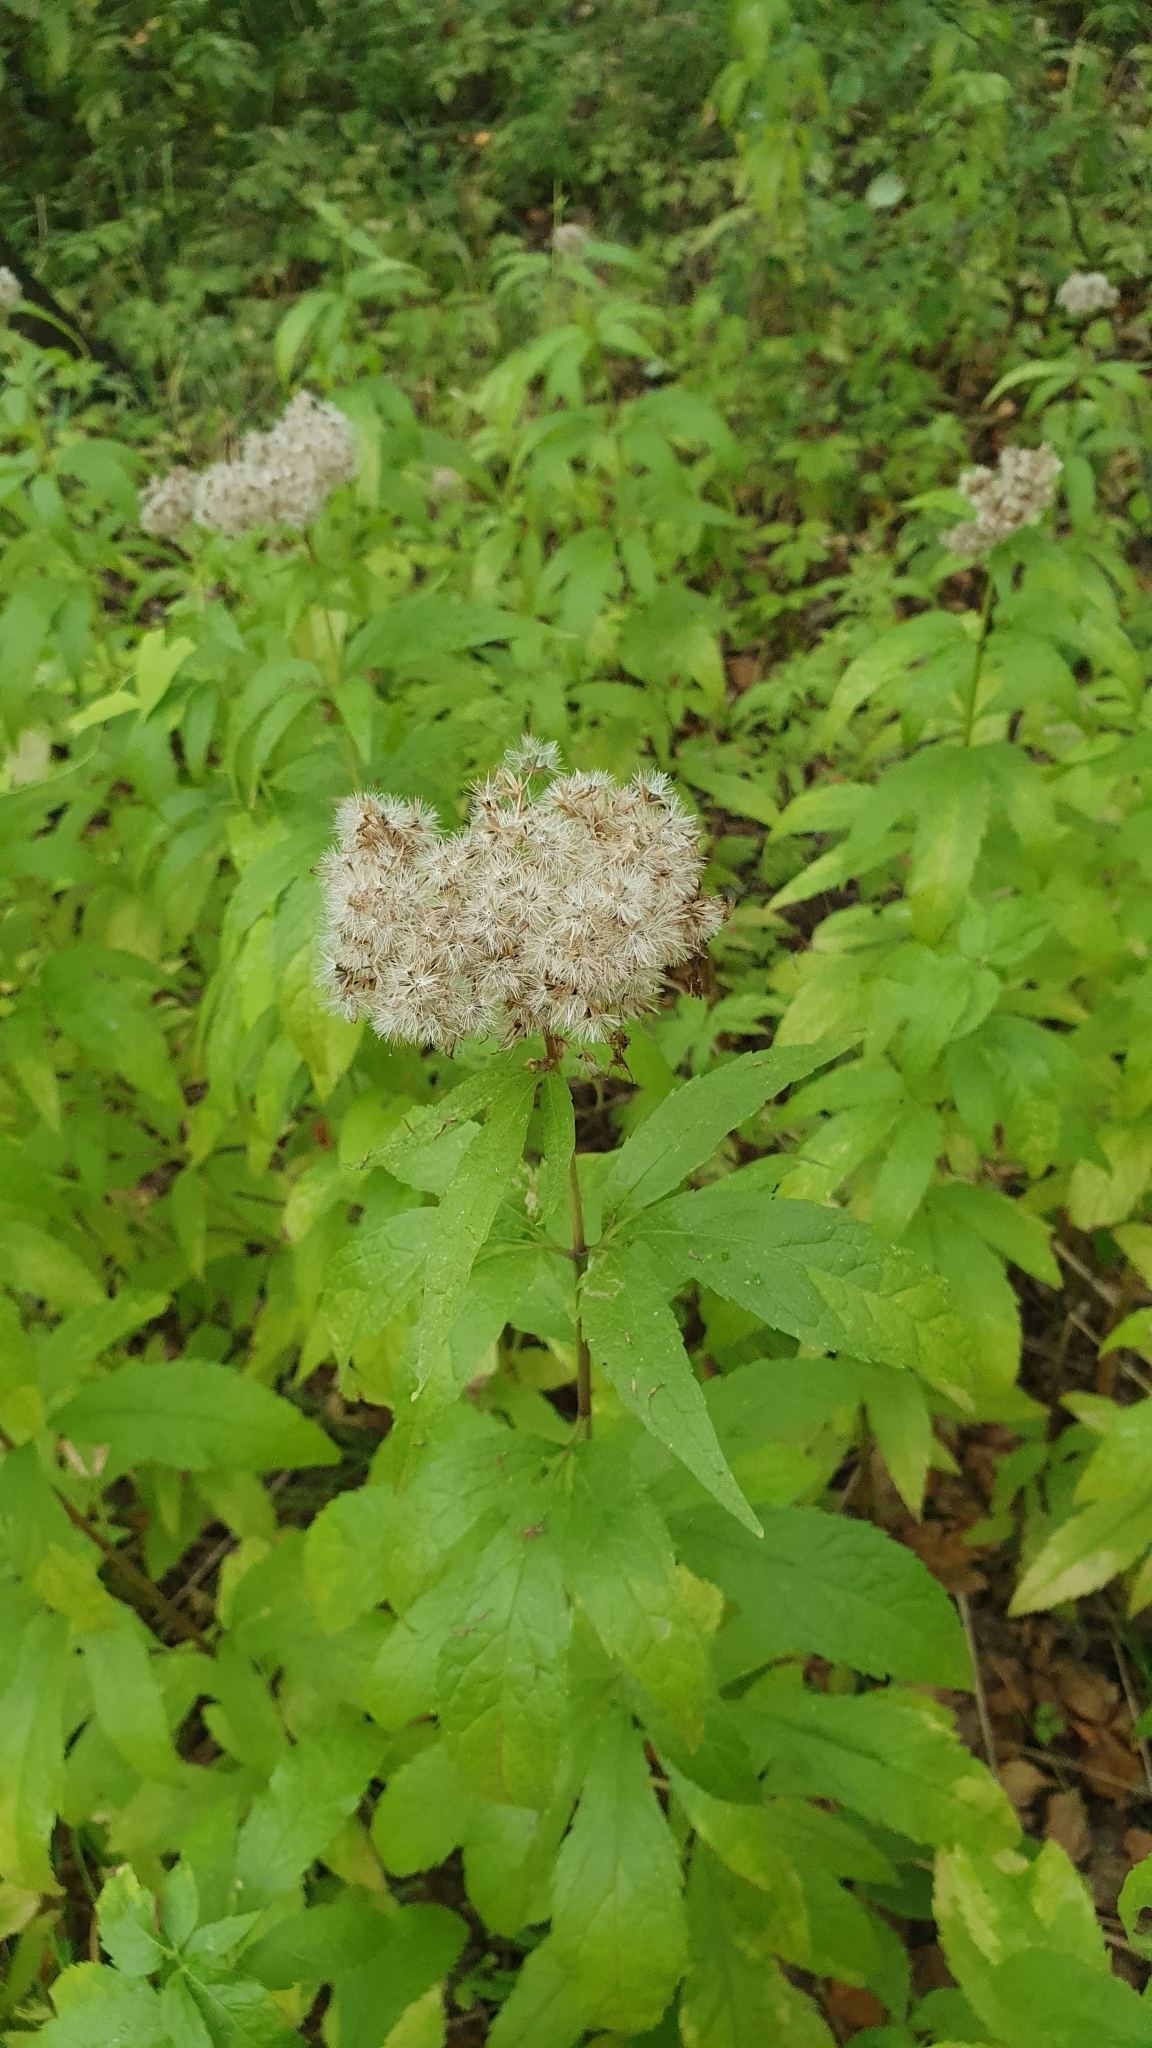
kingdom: Plantae
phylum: Tracheophyta
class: Magnoliopsida
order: Asterales
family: Asteraceae
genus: Eupatorium
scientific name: Eupatorium cannabinum
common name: Hemp-agrimony
